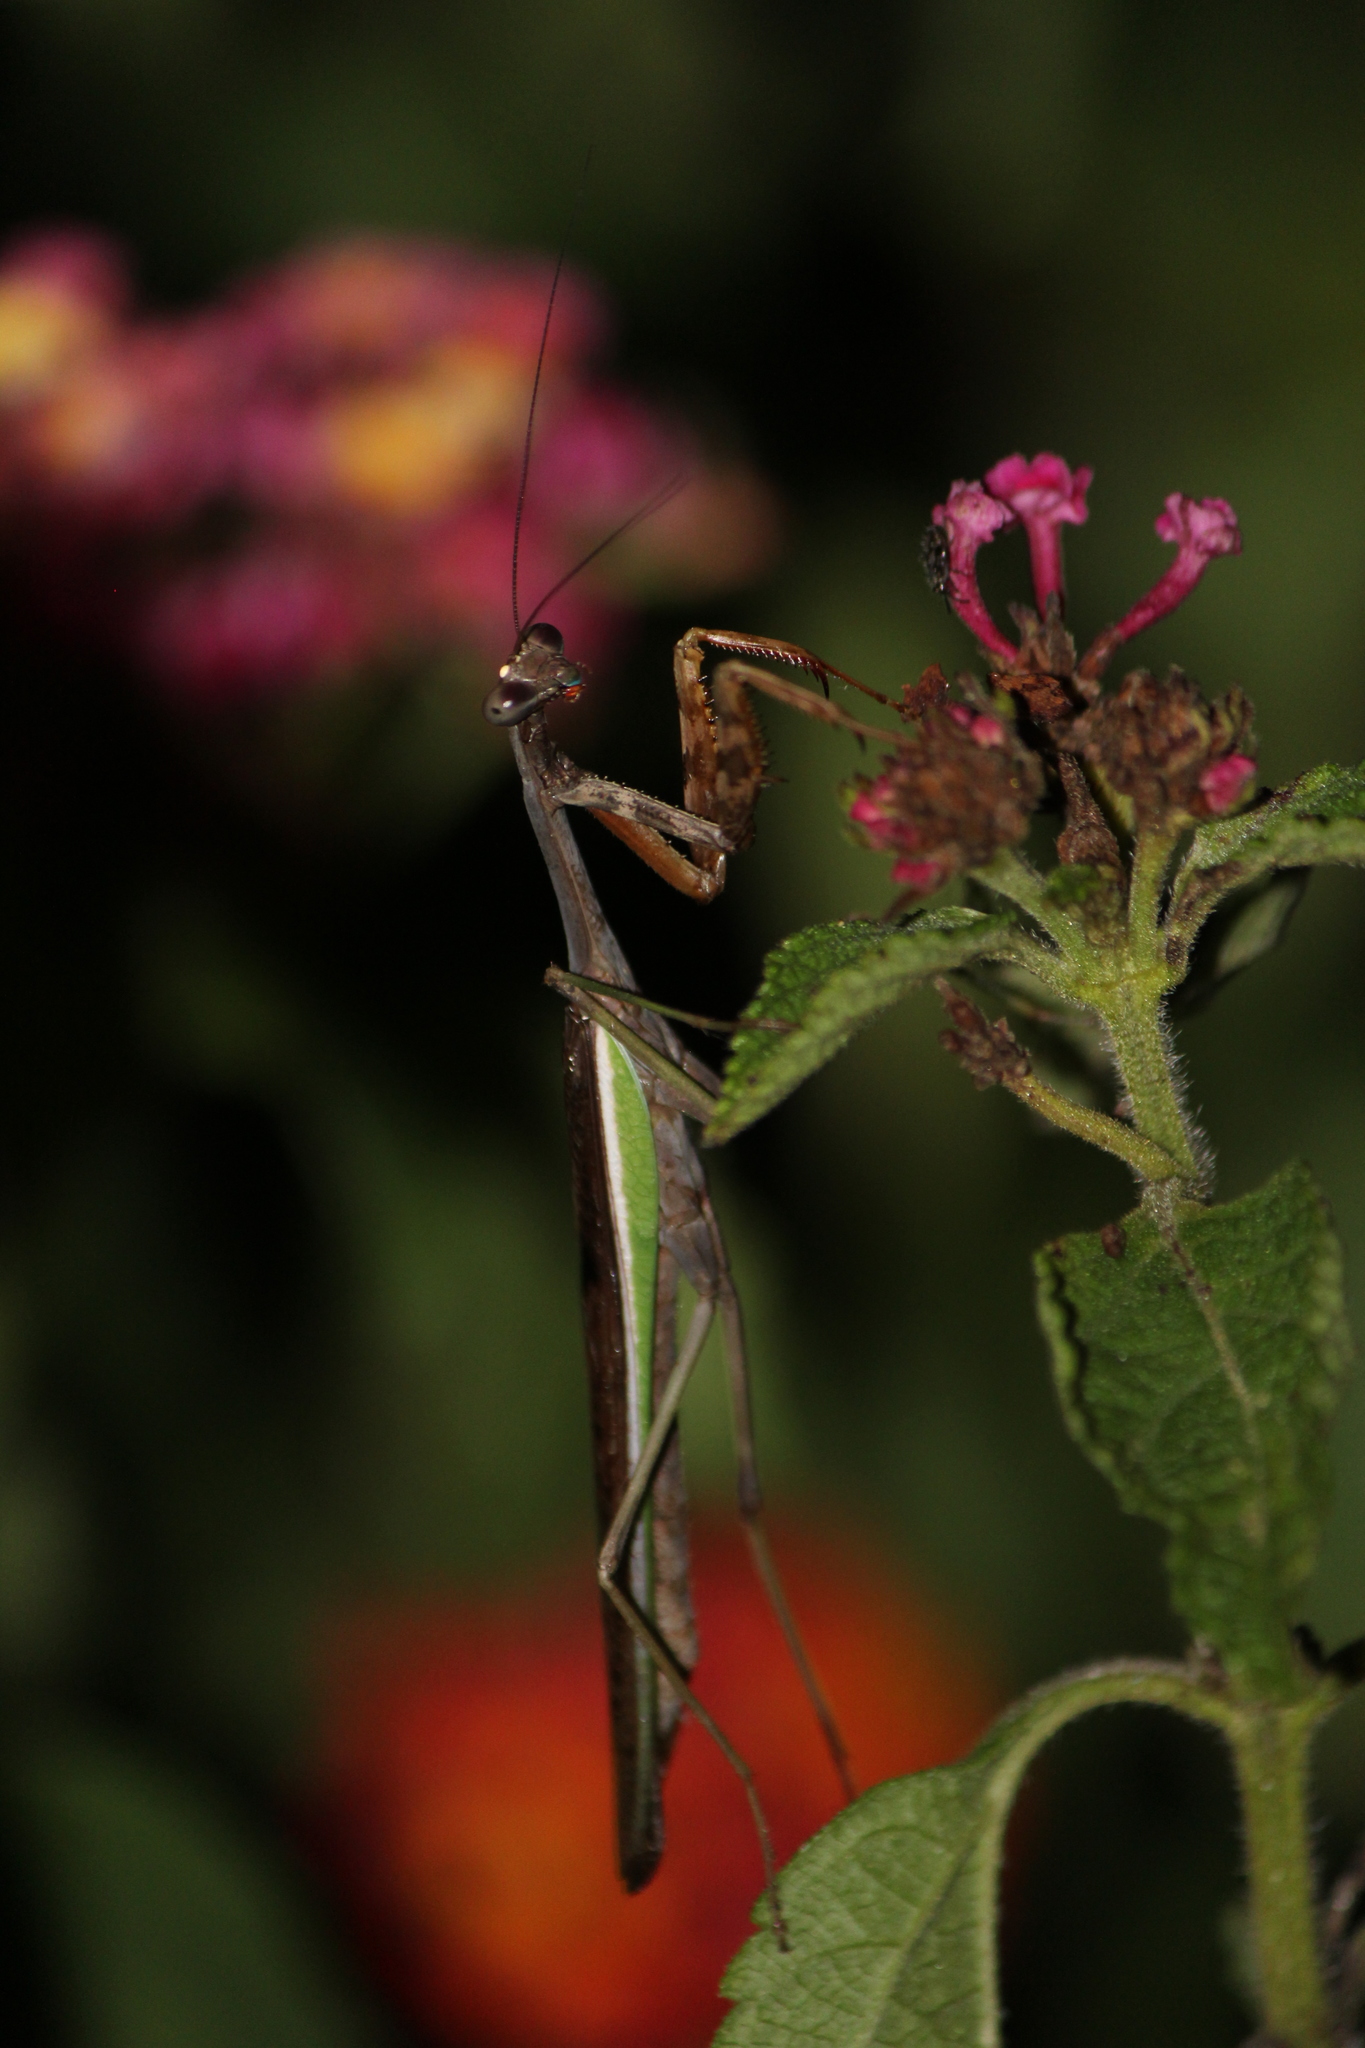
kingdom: Animalia
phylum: Arthropoda
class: Insecta
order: Mantodea
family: Mantidae
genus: Stagmomantis
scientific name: Stagmomantis limbata
